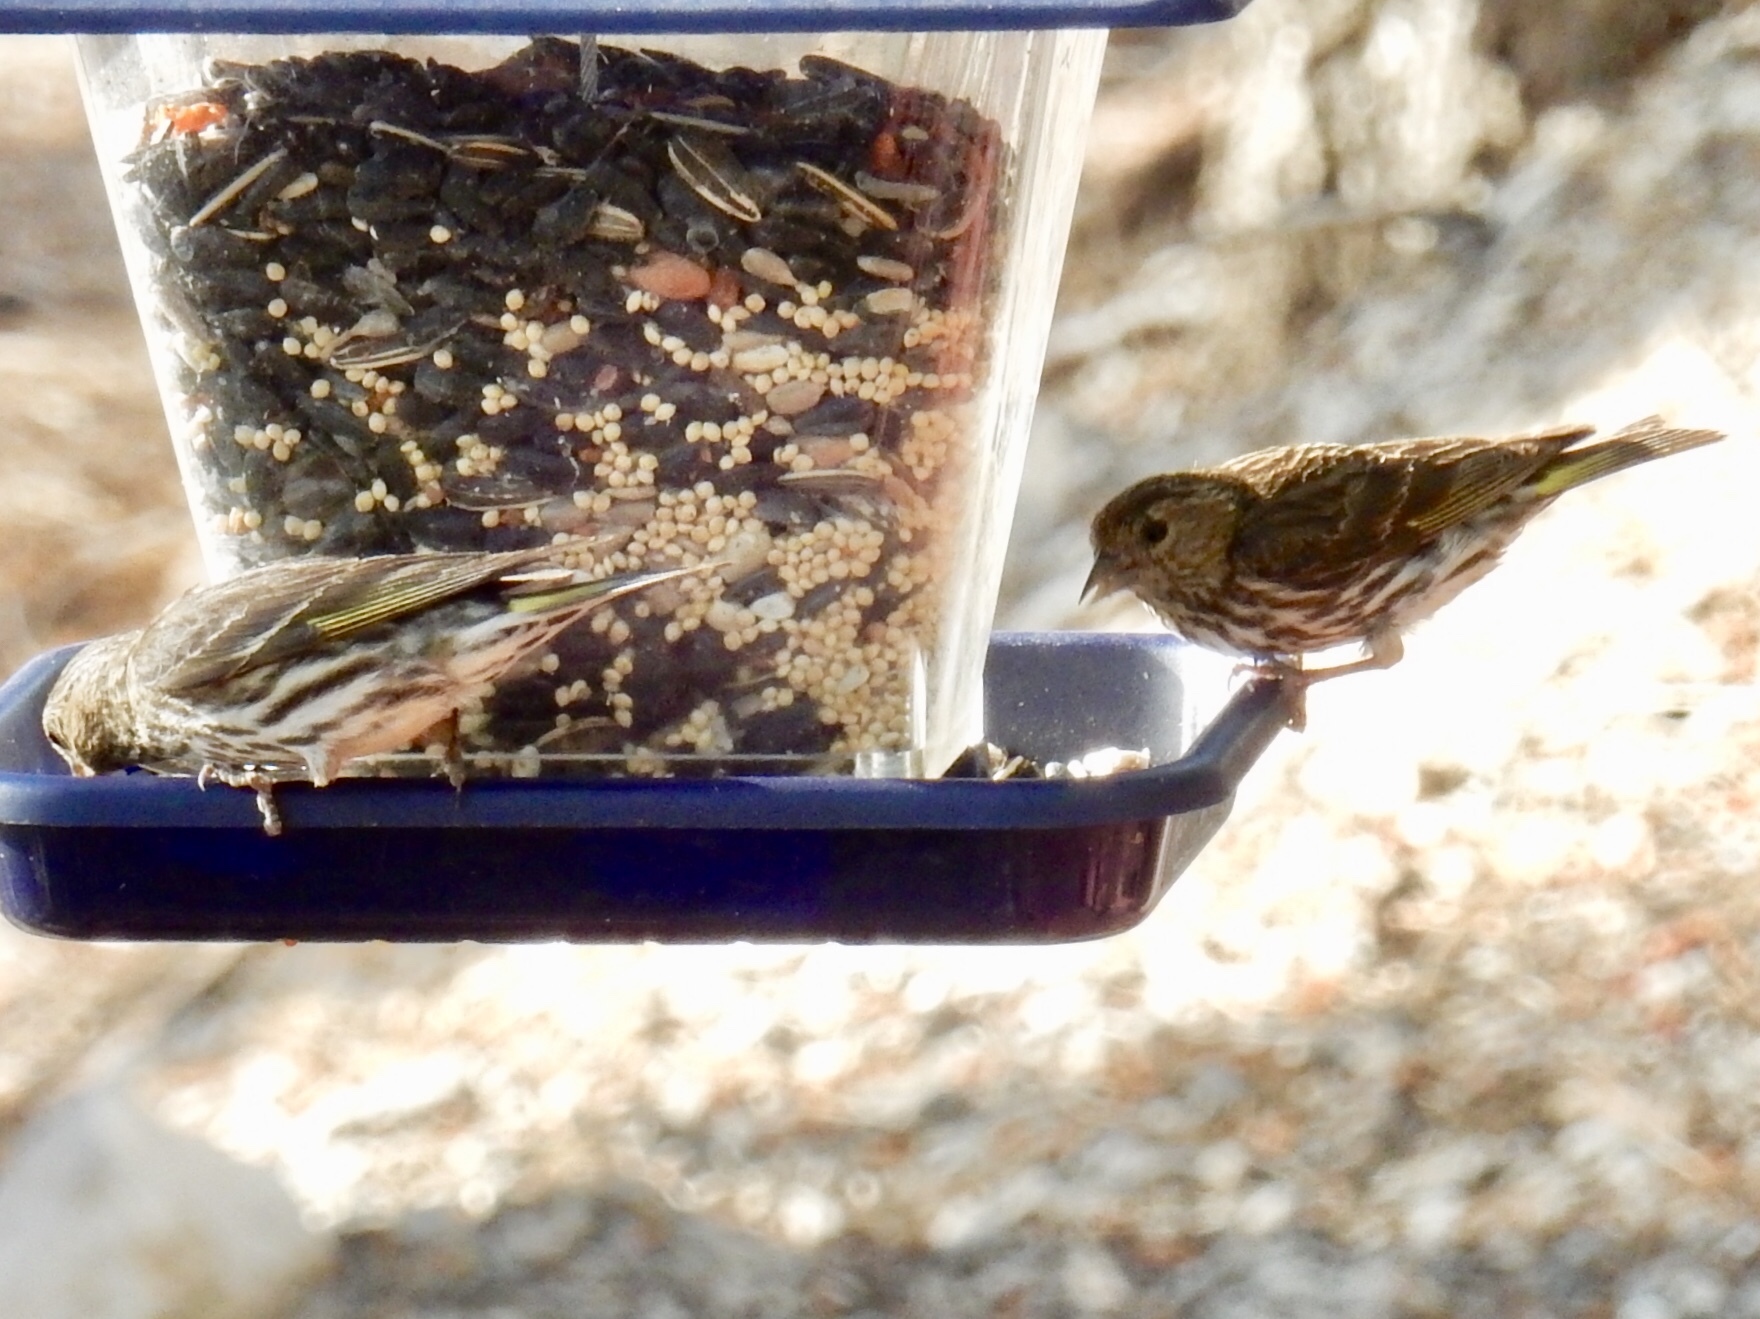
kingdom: Animalia
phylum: Chordata
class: Aves
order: Passeriformes
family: Fringillidae
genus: Spinus
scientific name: Spinus pinus
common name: Pine siskin
